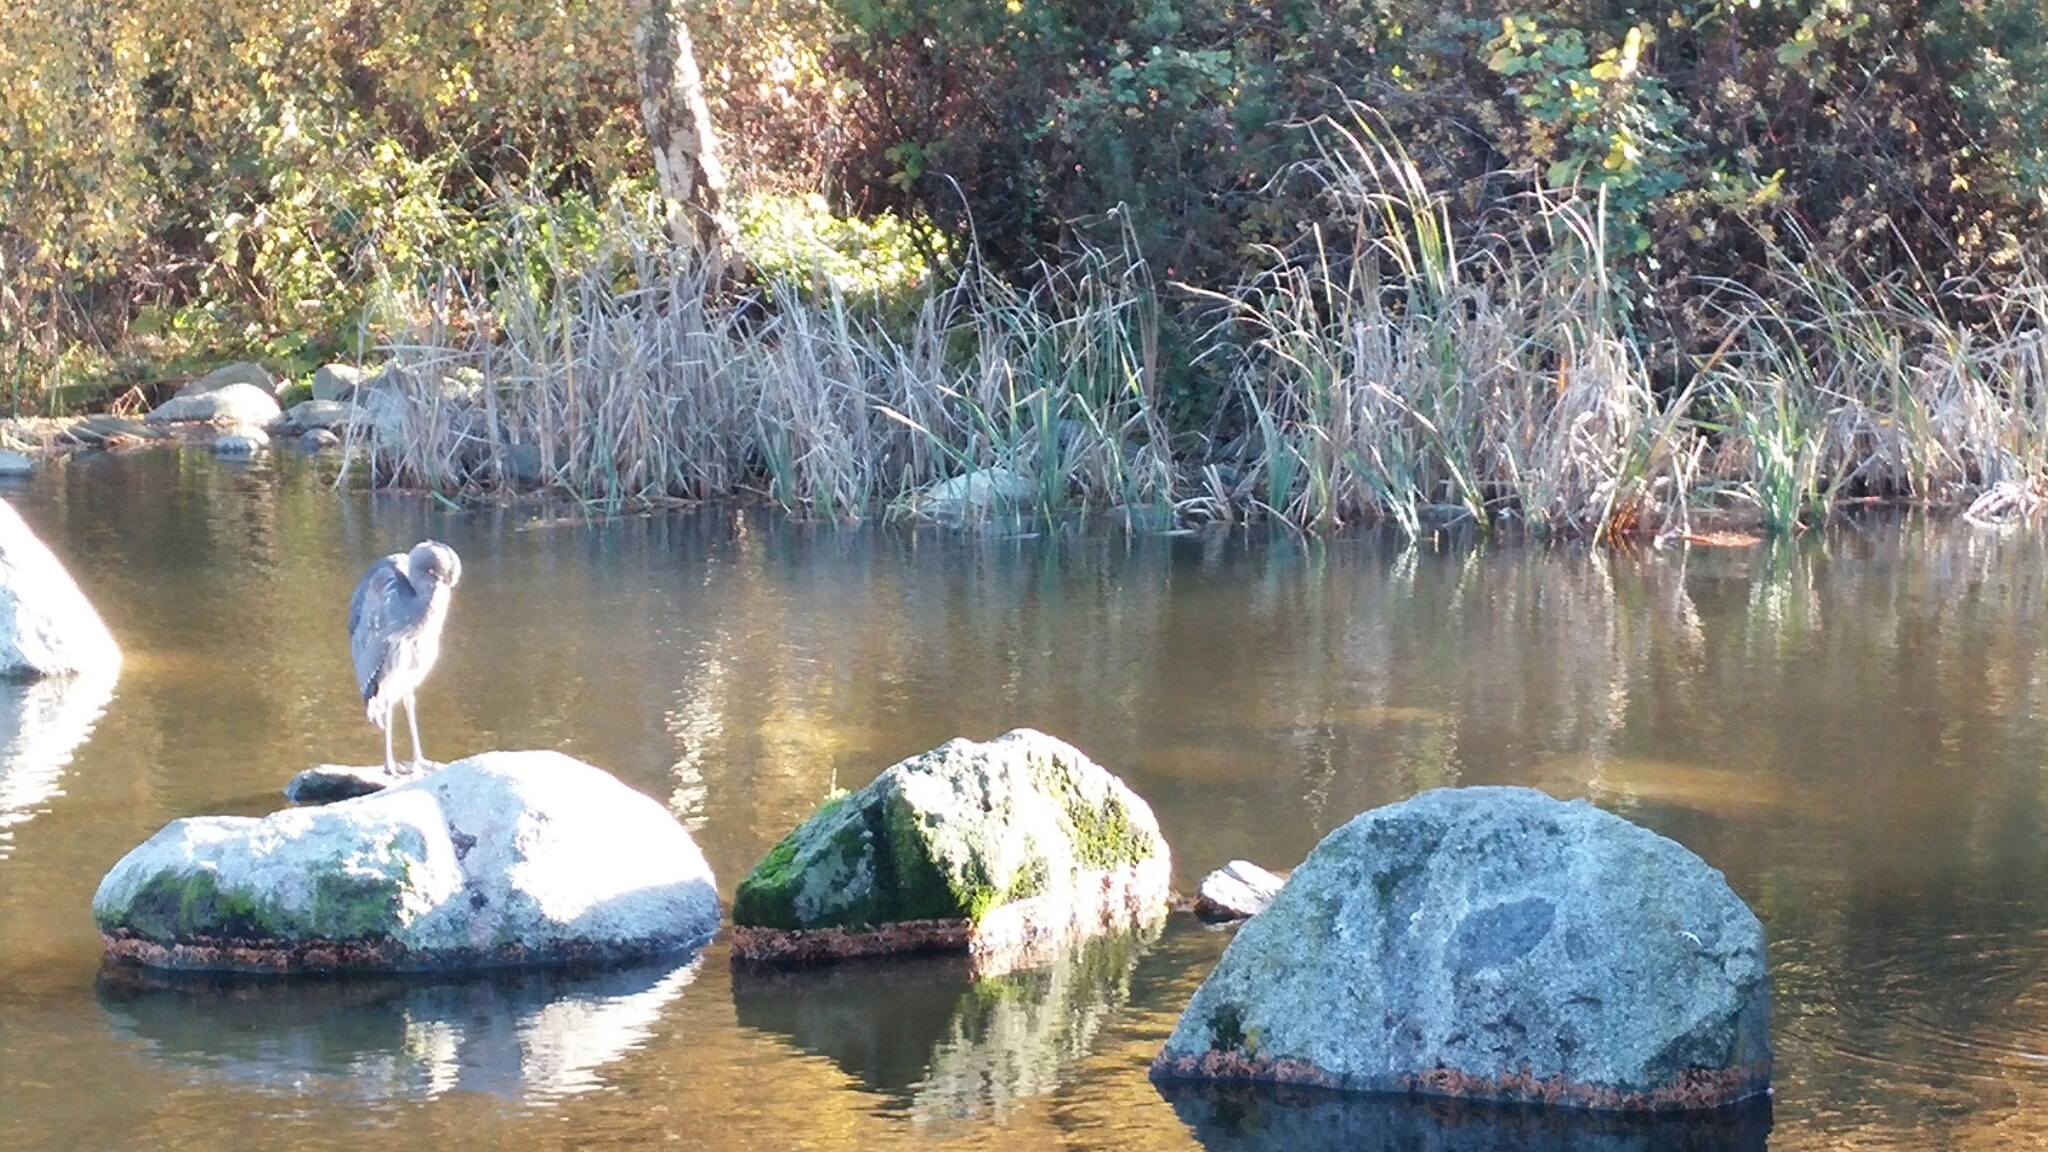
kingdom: Animalia
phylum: Chordata
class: Aves
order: Pelecaniformes
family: Ardeidae
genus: Ardea
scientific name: Ardea herodias
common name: Great blue heron
